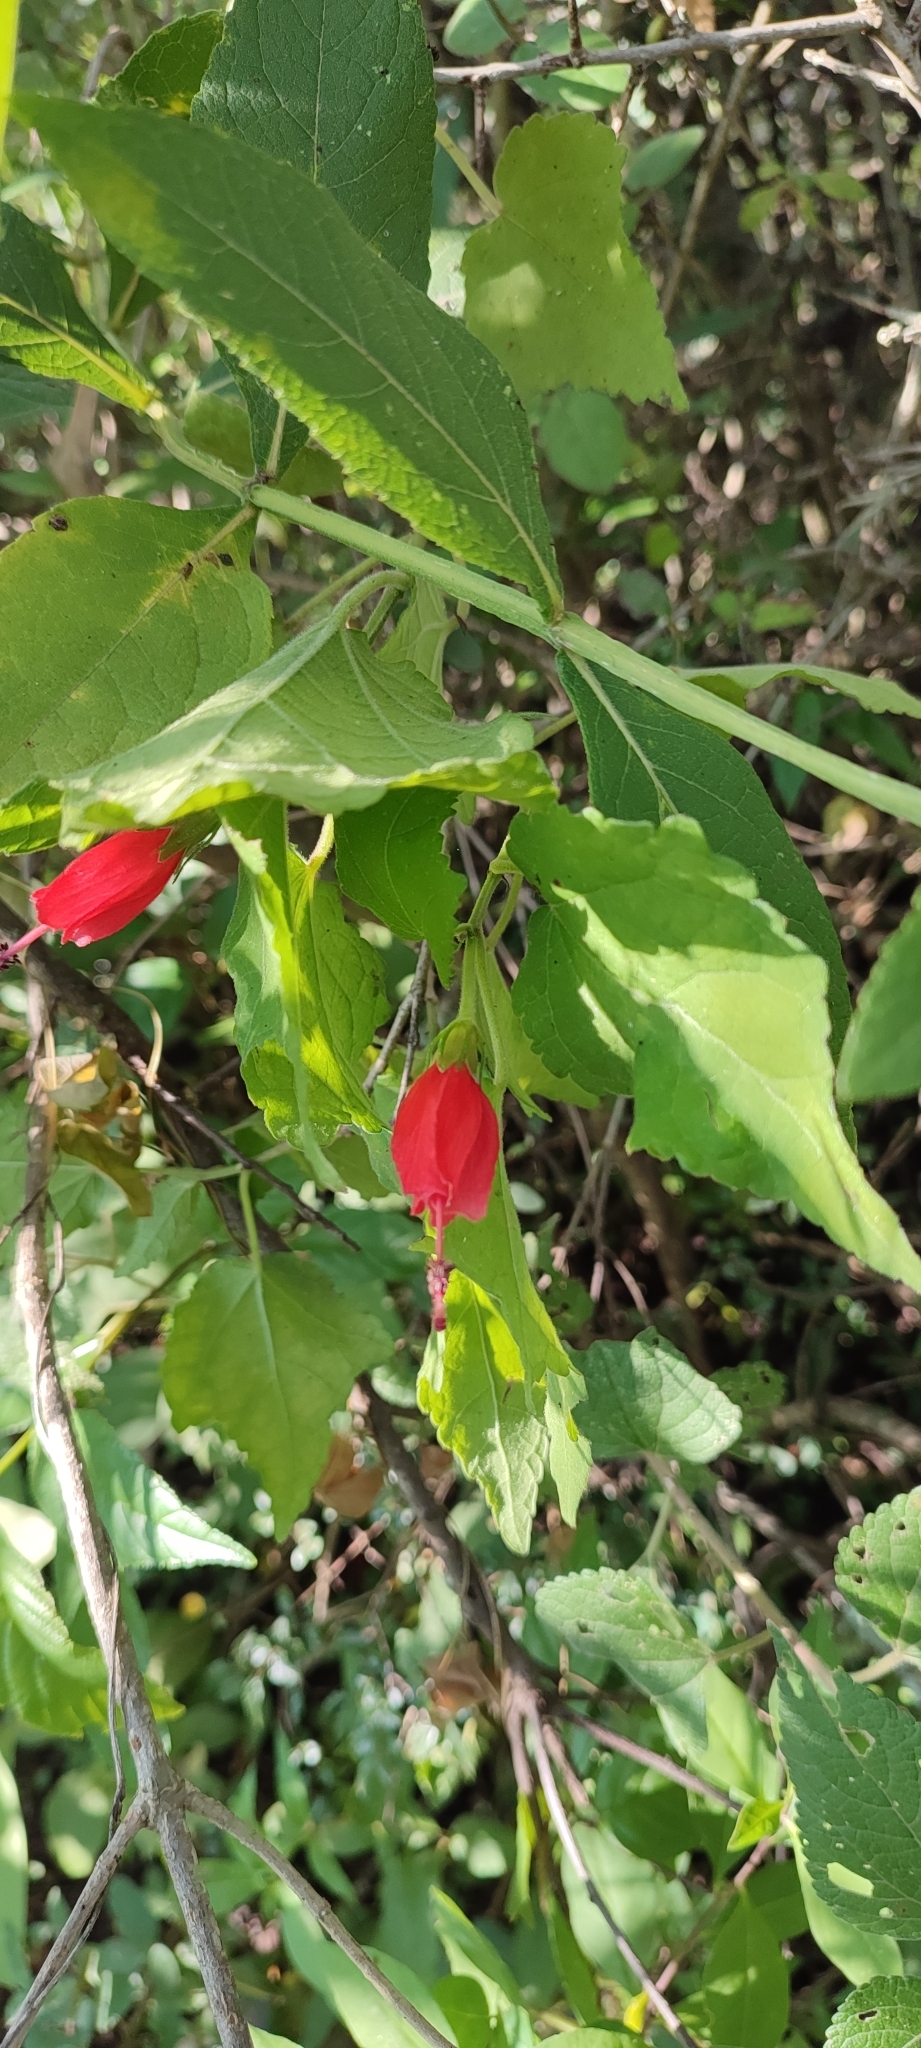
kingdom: Plantae
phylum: Tracheophyta
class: Magnoliopsida
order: Malvales
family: Malvaceae
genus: Malvaviscus
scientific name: Malvaviscus arboreus
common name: Wax mallow
